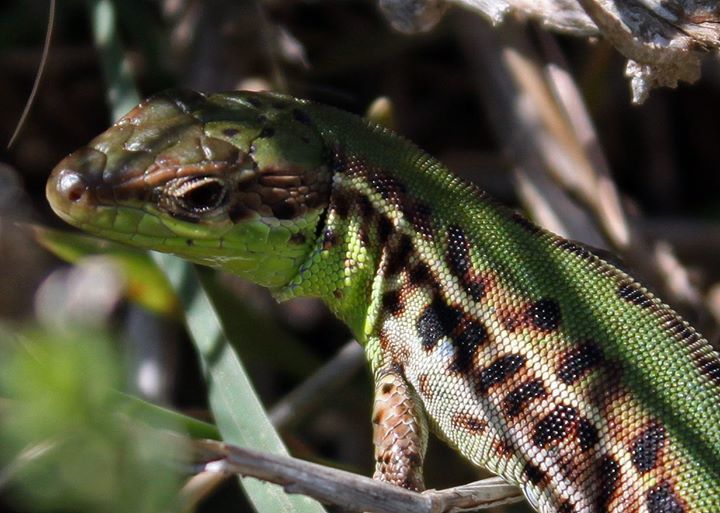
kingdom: Animalia
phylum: Chordata
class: Squamata
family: Lacertidae
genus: Podarcis
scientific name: Podarcis ionicus
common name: Ionian wall lizard
